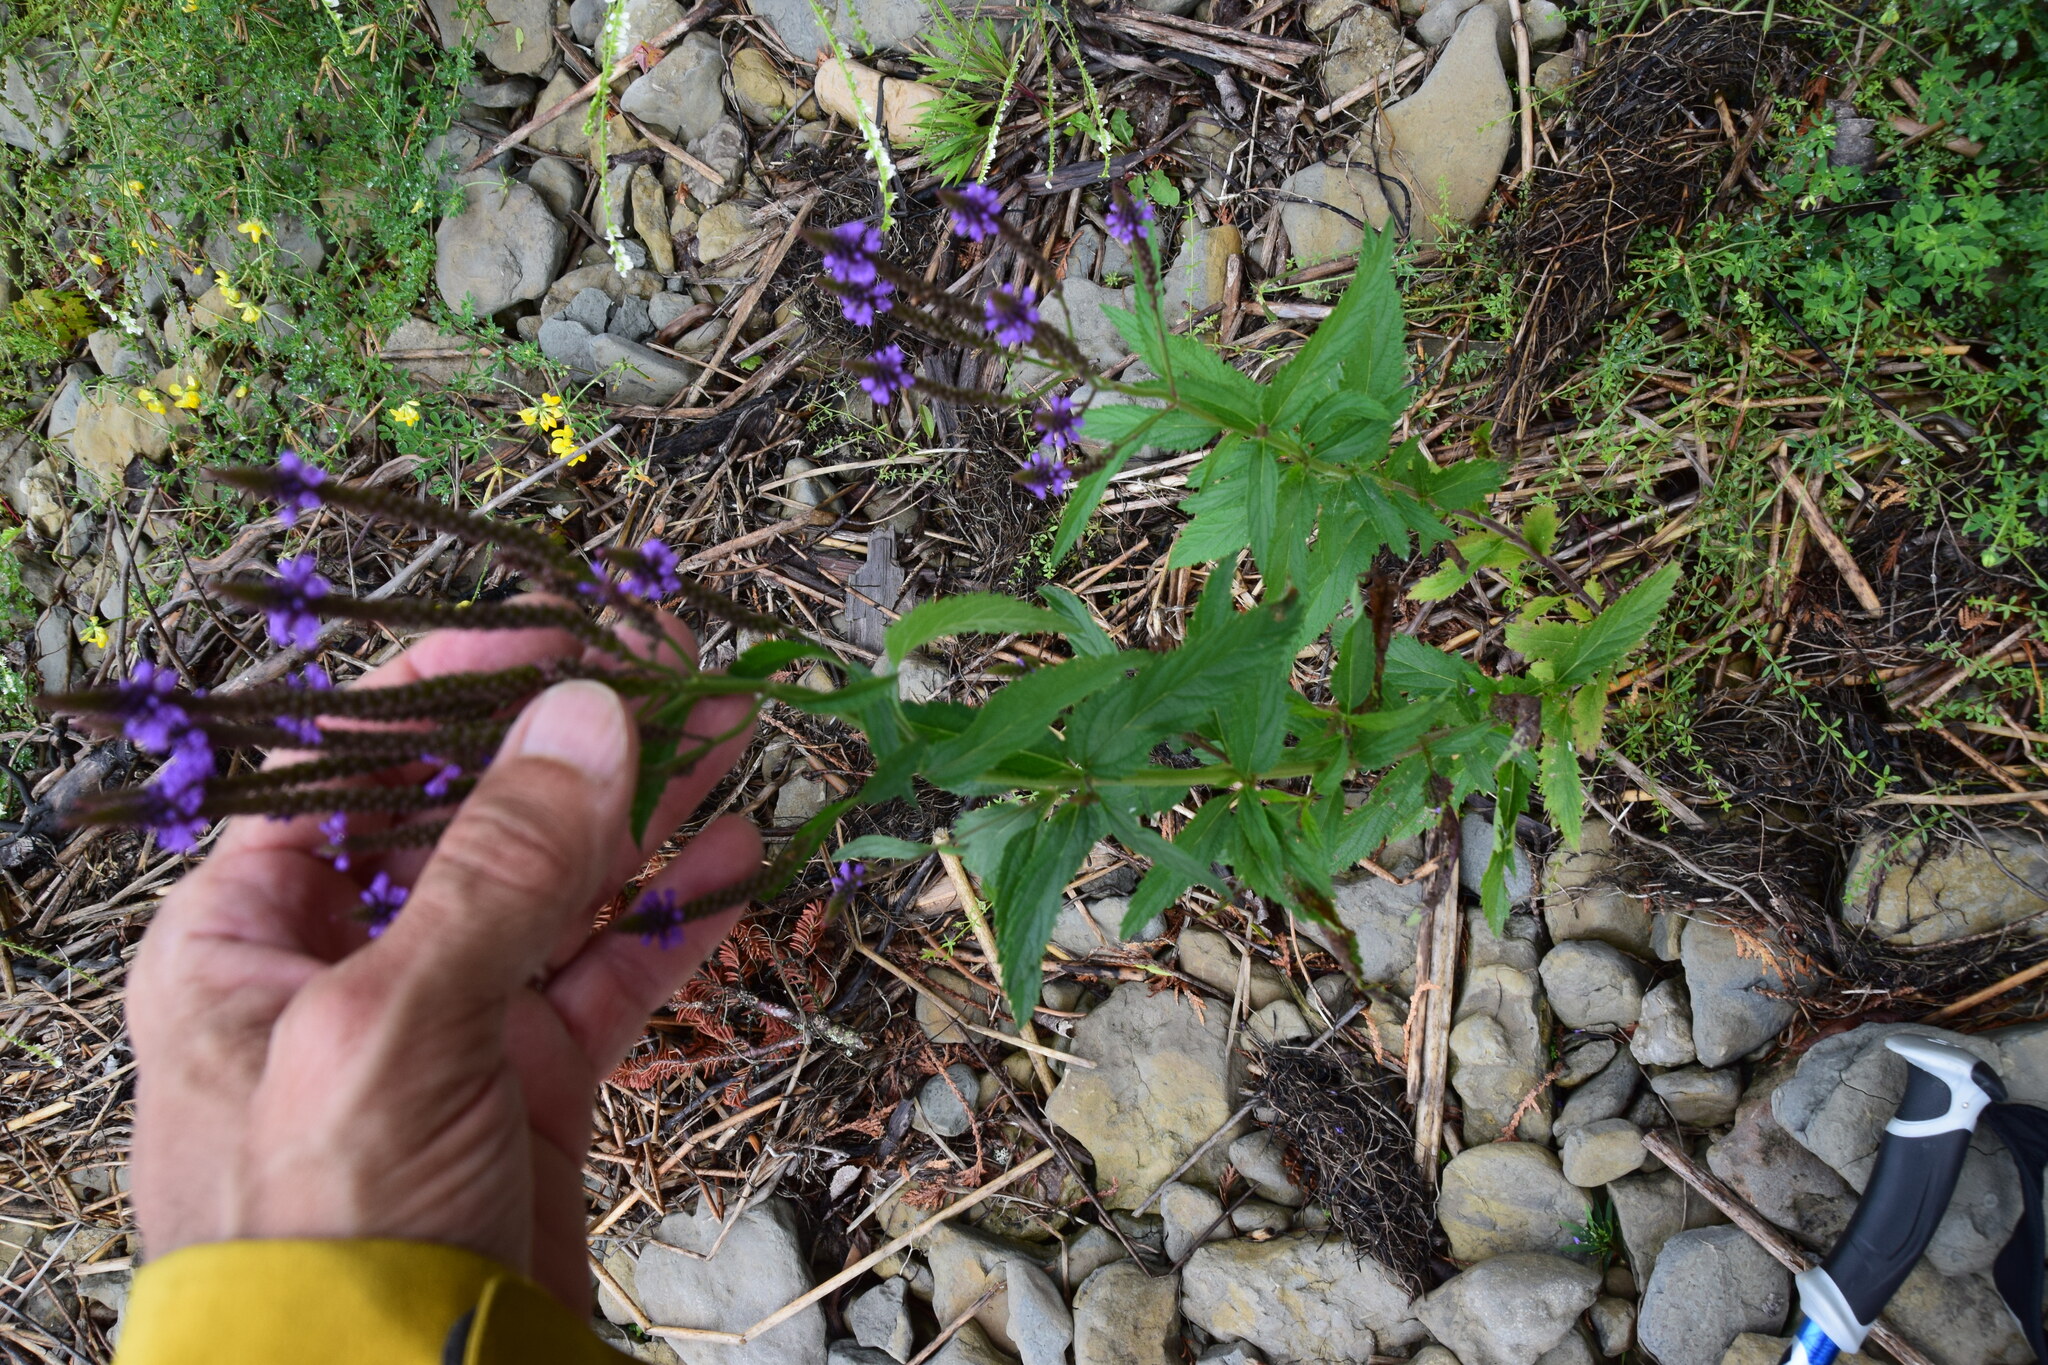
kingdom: Plantae
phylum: Tracheophyta
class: Magnoliopsida
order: Lamiales
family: Verbenaceae
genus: Verbena
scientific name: Verbena hastata
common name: American blue vervain
